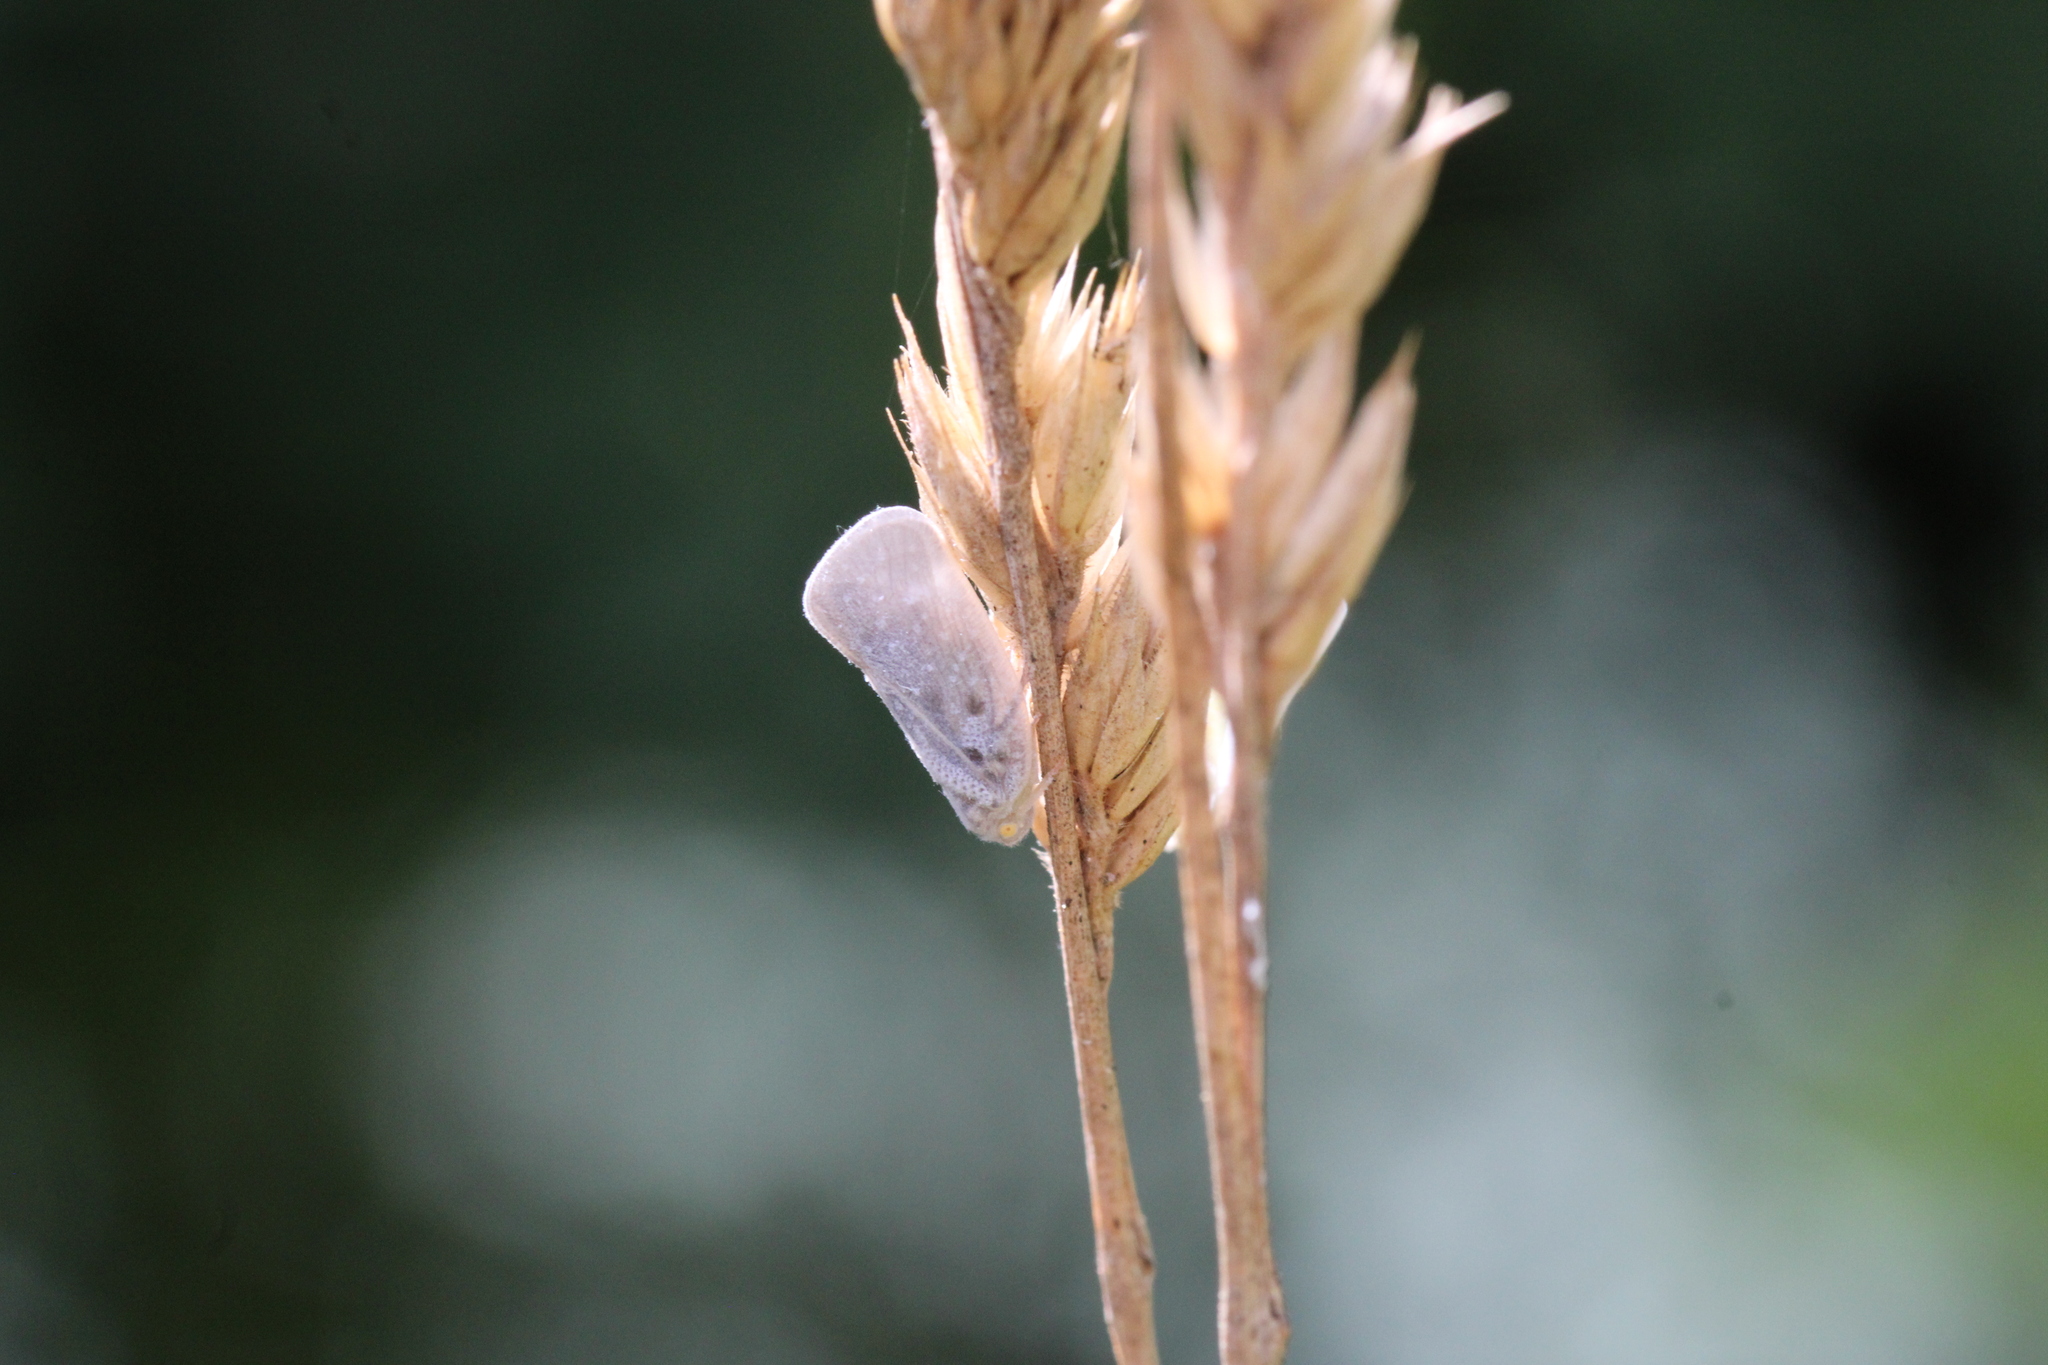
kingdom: Animalia
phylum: Arthropoda
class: Insecta
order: Hemiptera
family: Flatidae
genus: Metcalfa
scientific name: Metcalfa pruinosa
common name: Citrus flatid planthopper
